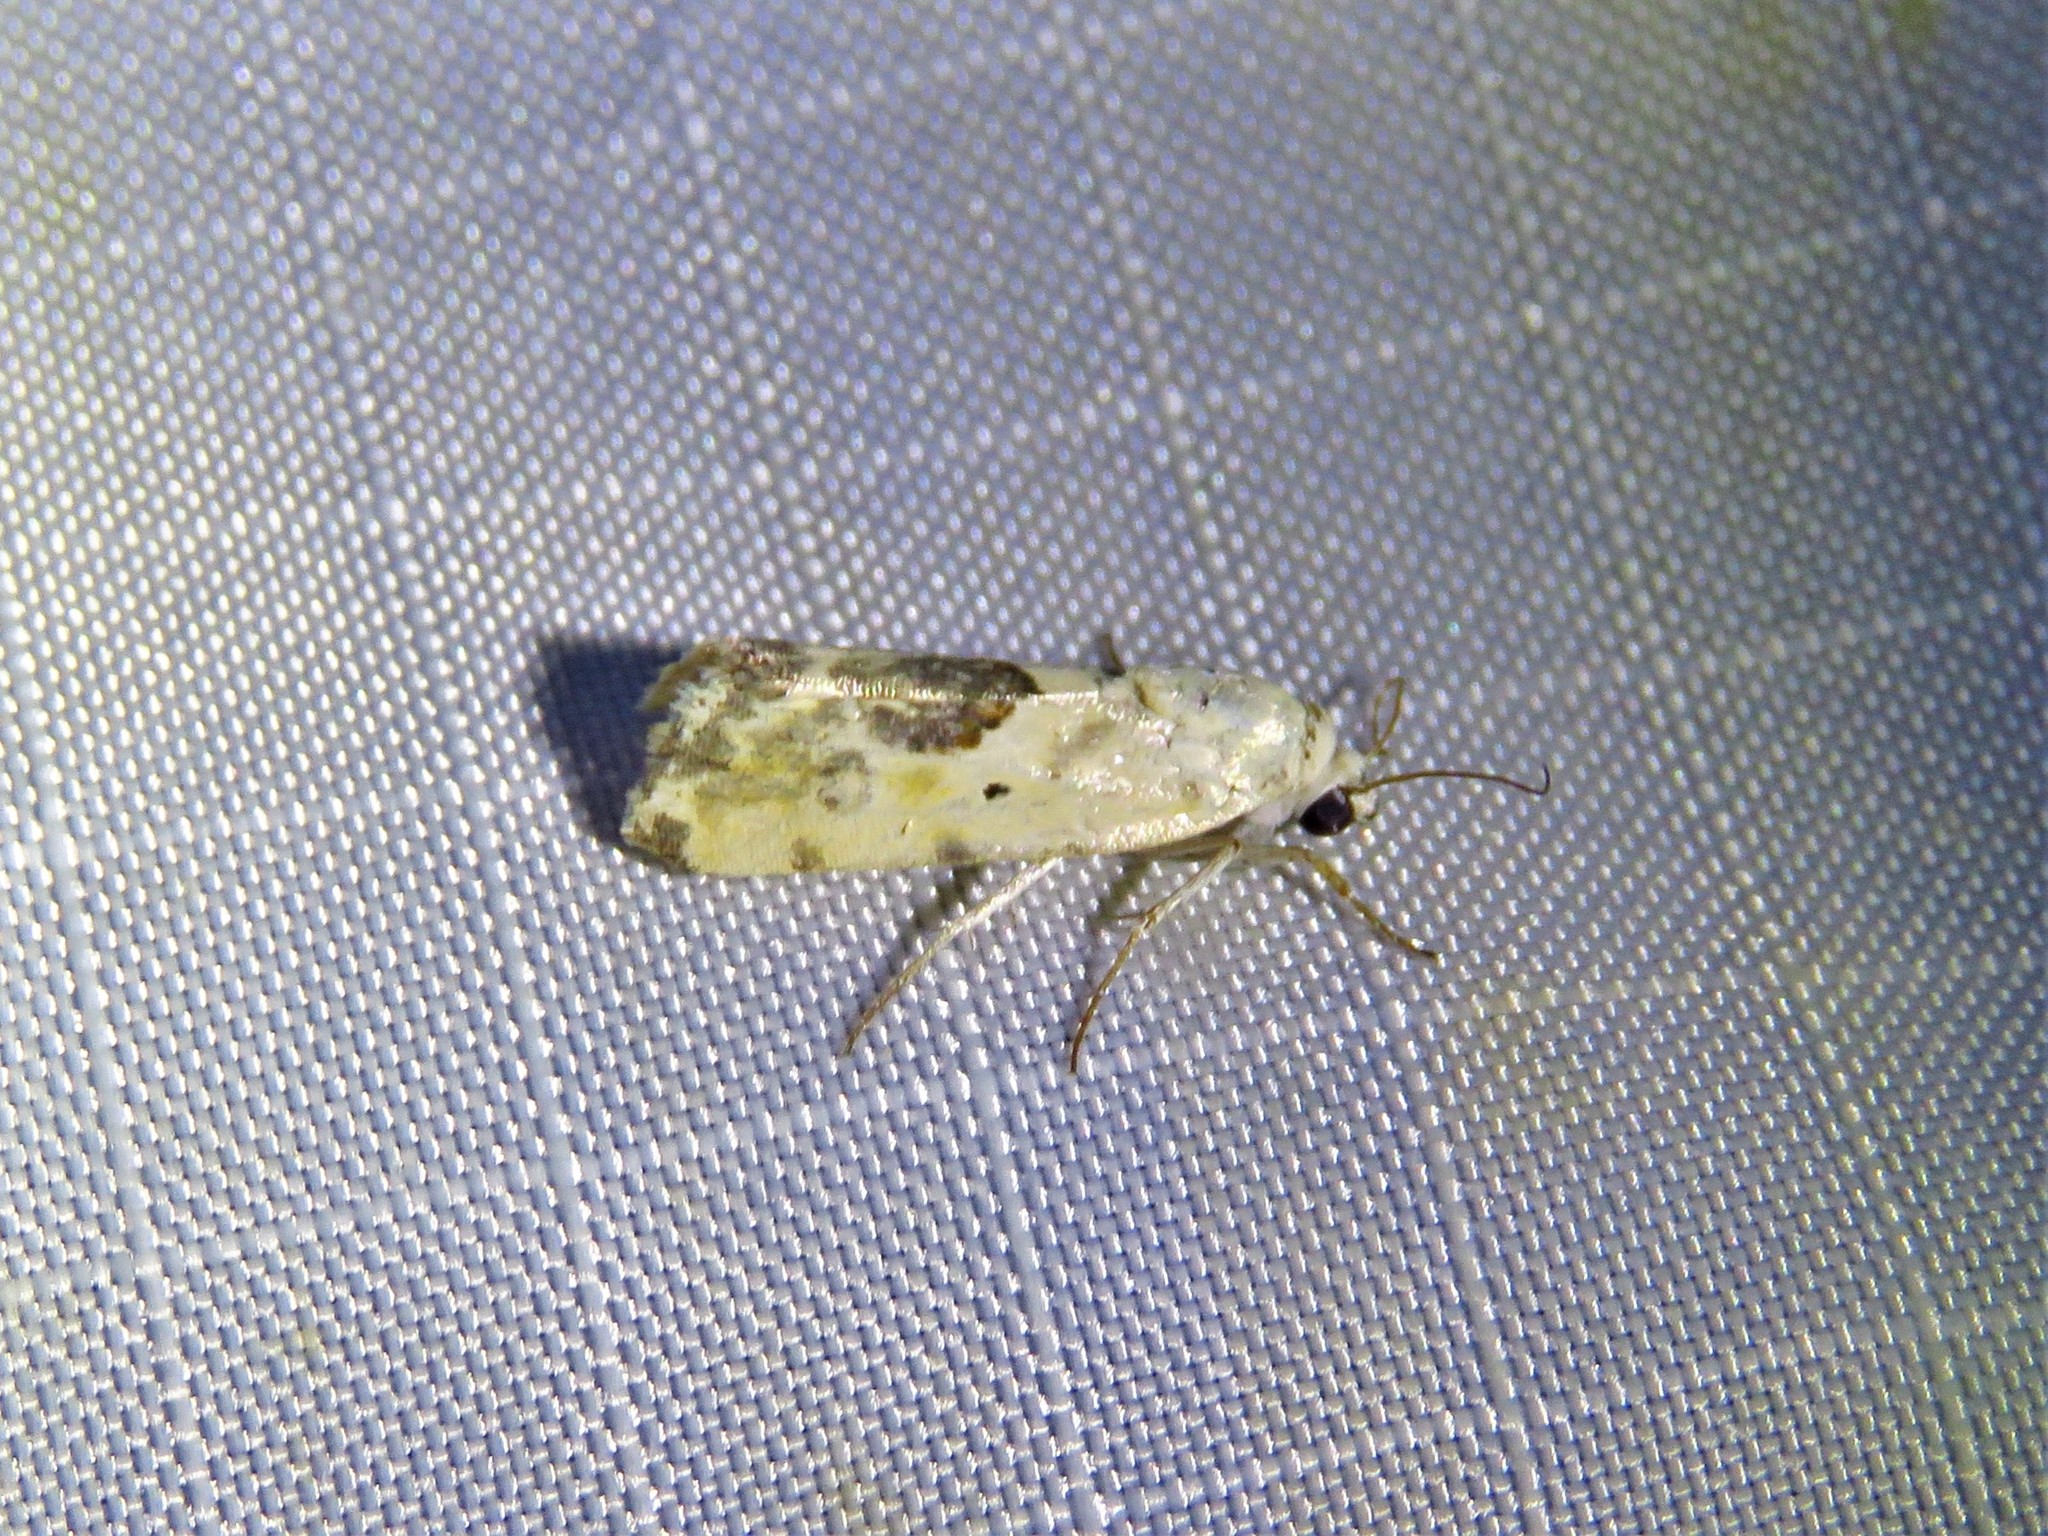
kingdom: Animalia
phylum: Arthropoda
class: Insecta
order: Lepidoptera
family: Noctuidae
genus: Acontia
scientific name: Acontia libedis
